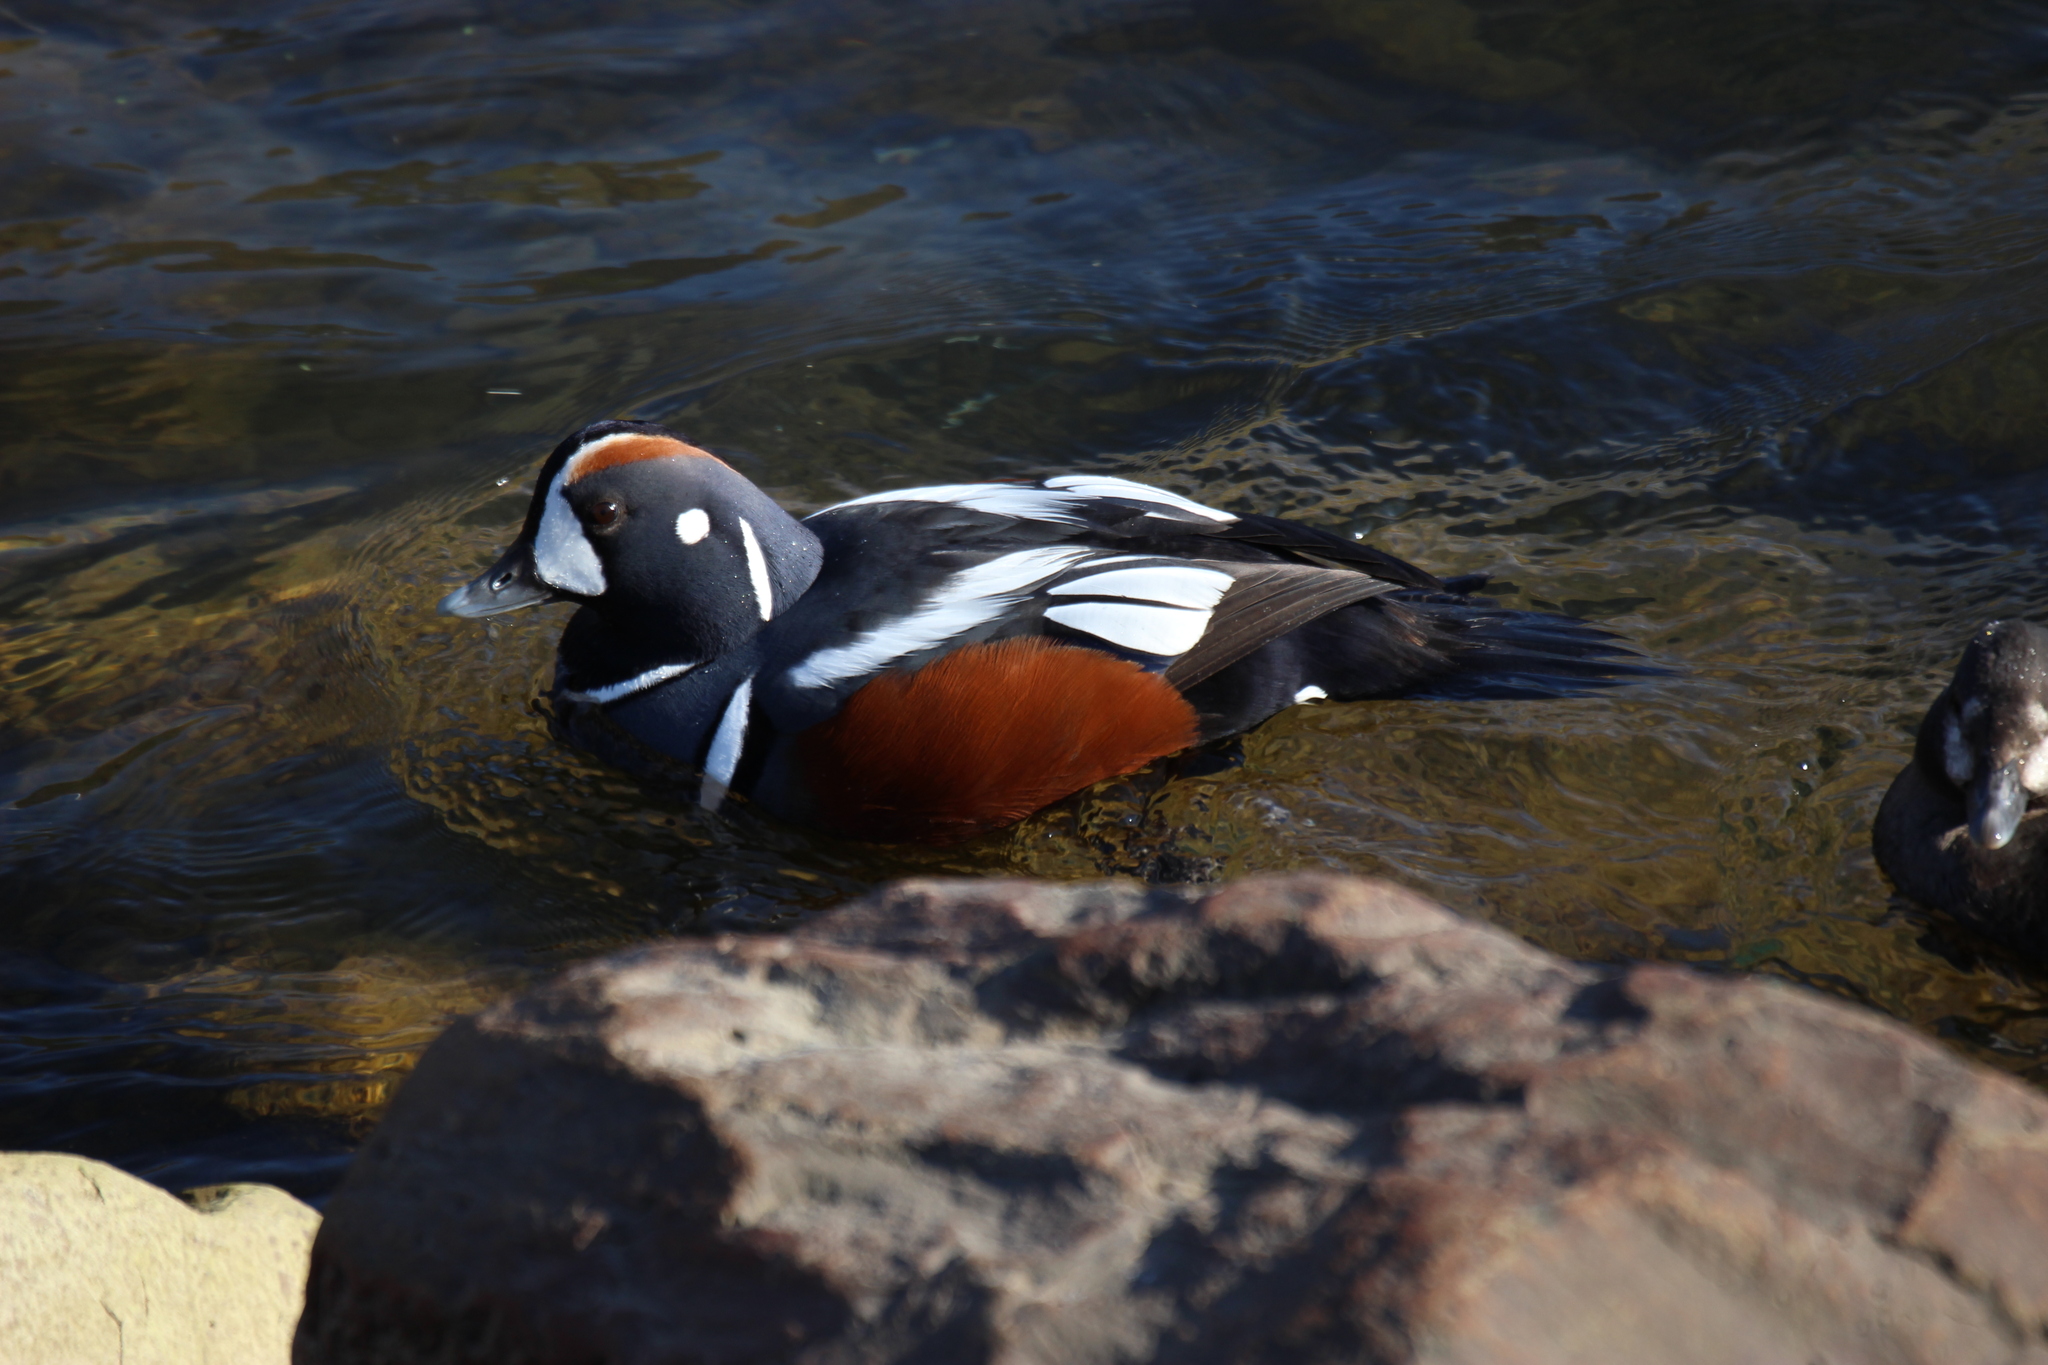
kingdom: Animalia
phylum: Chordata
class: Aves
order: Anseriformes
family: Anatidae
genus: Histrionicus
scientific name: Histrionicus histrionicus
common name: Harlequin duck
